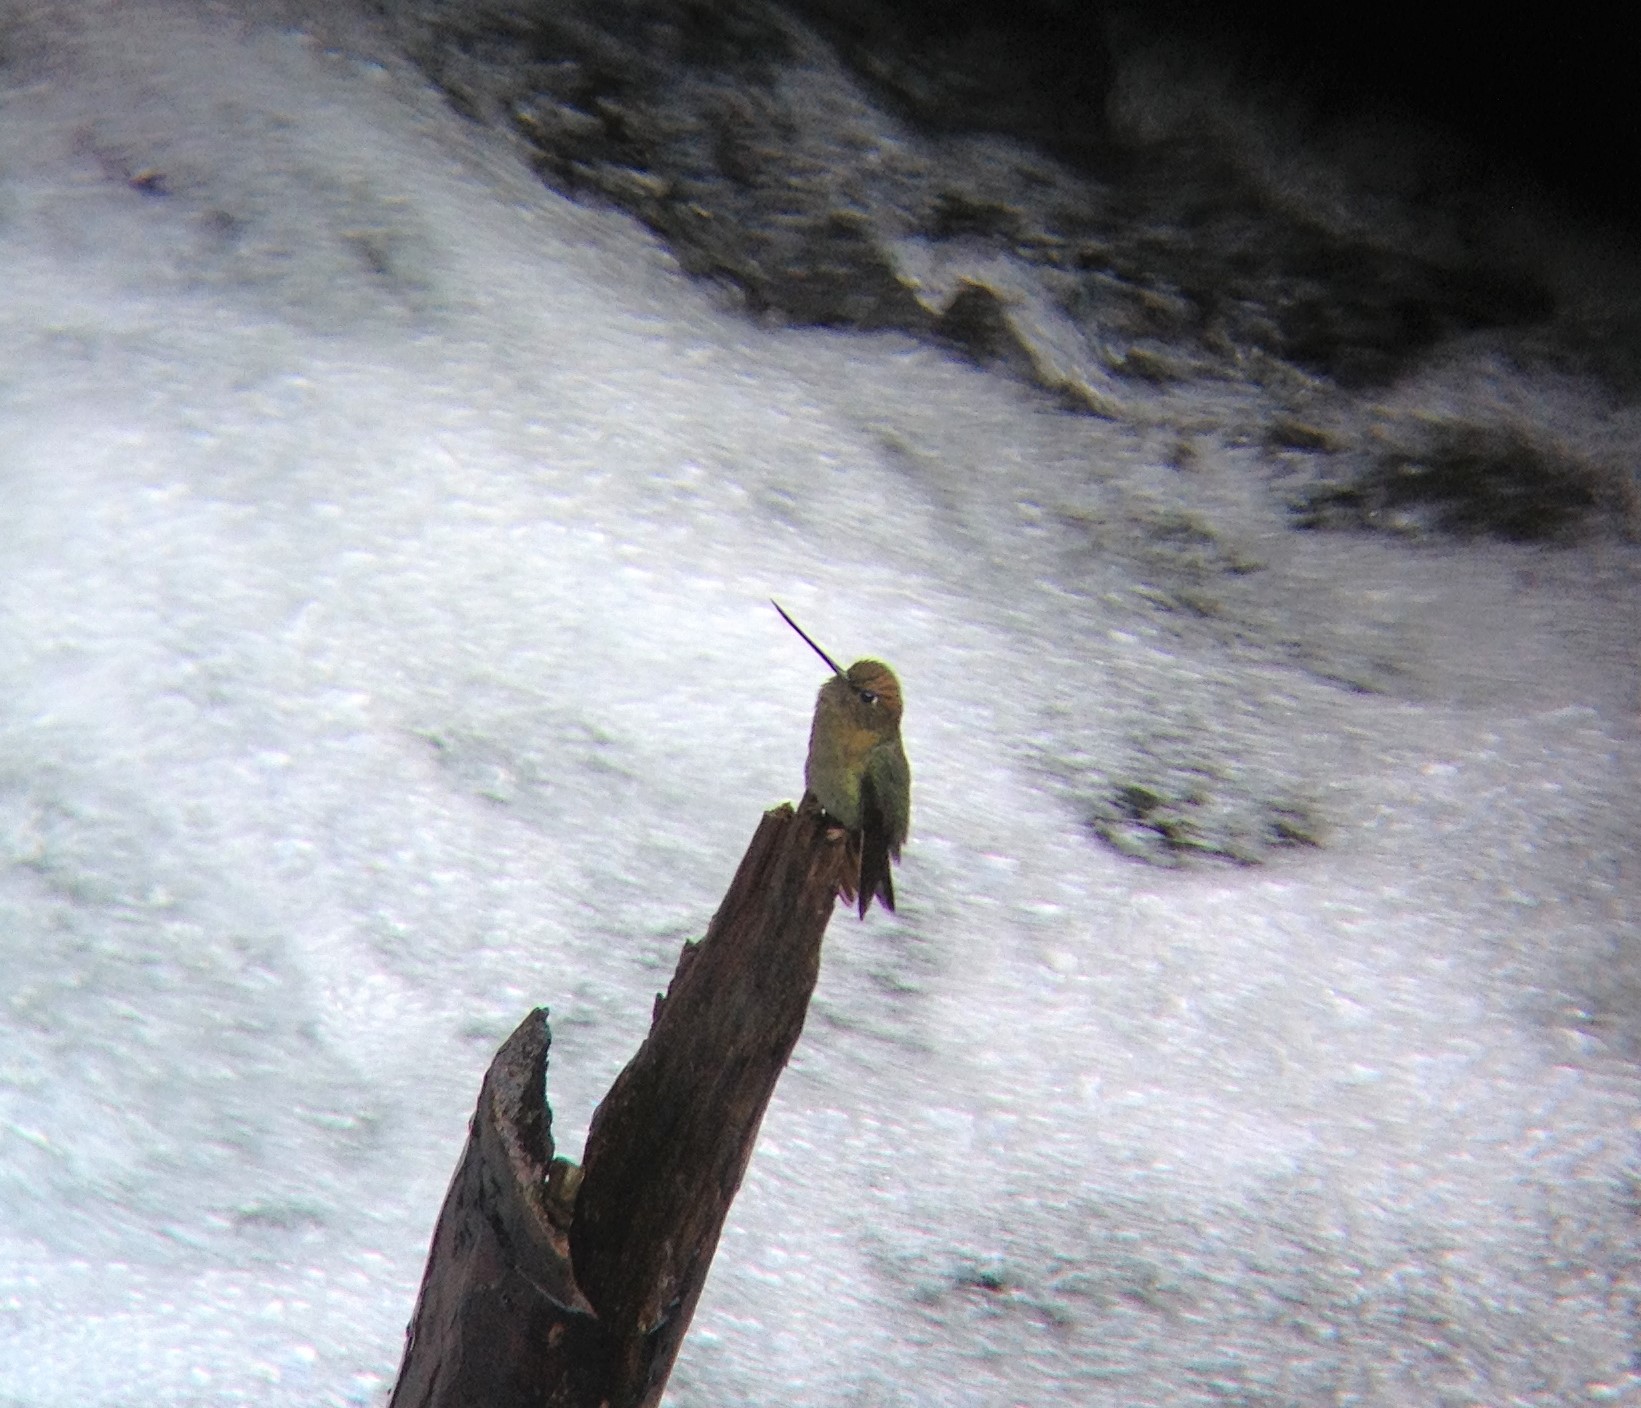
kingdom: Animalia
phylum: Chordata
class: Aves
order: Apodiformes
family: Trochilidae
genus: Doryfera
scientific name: Doryfera ludovicae
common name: Green-fronted lancebill
